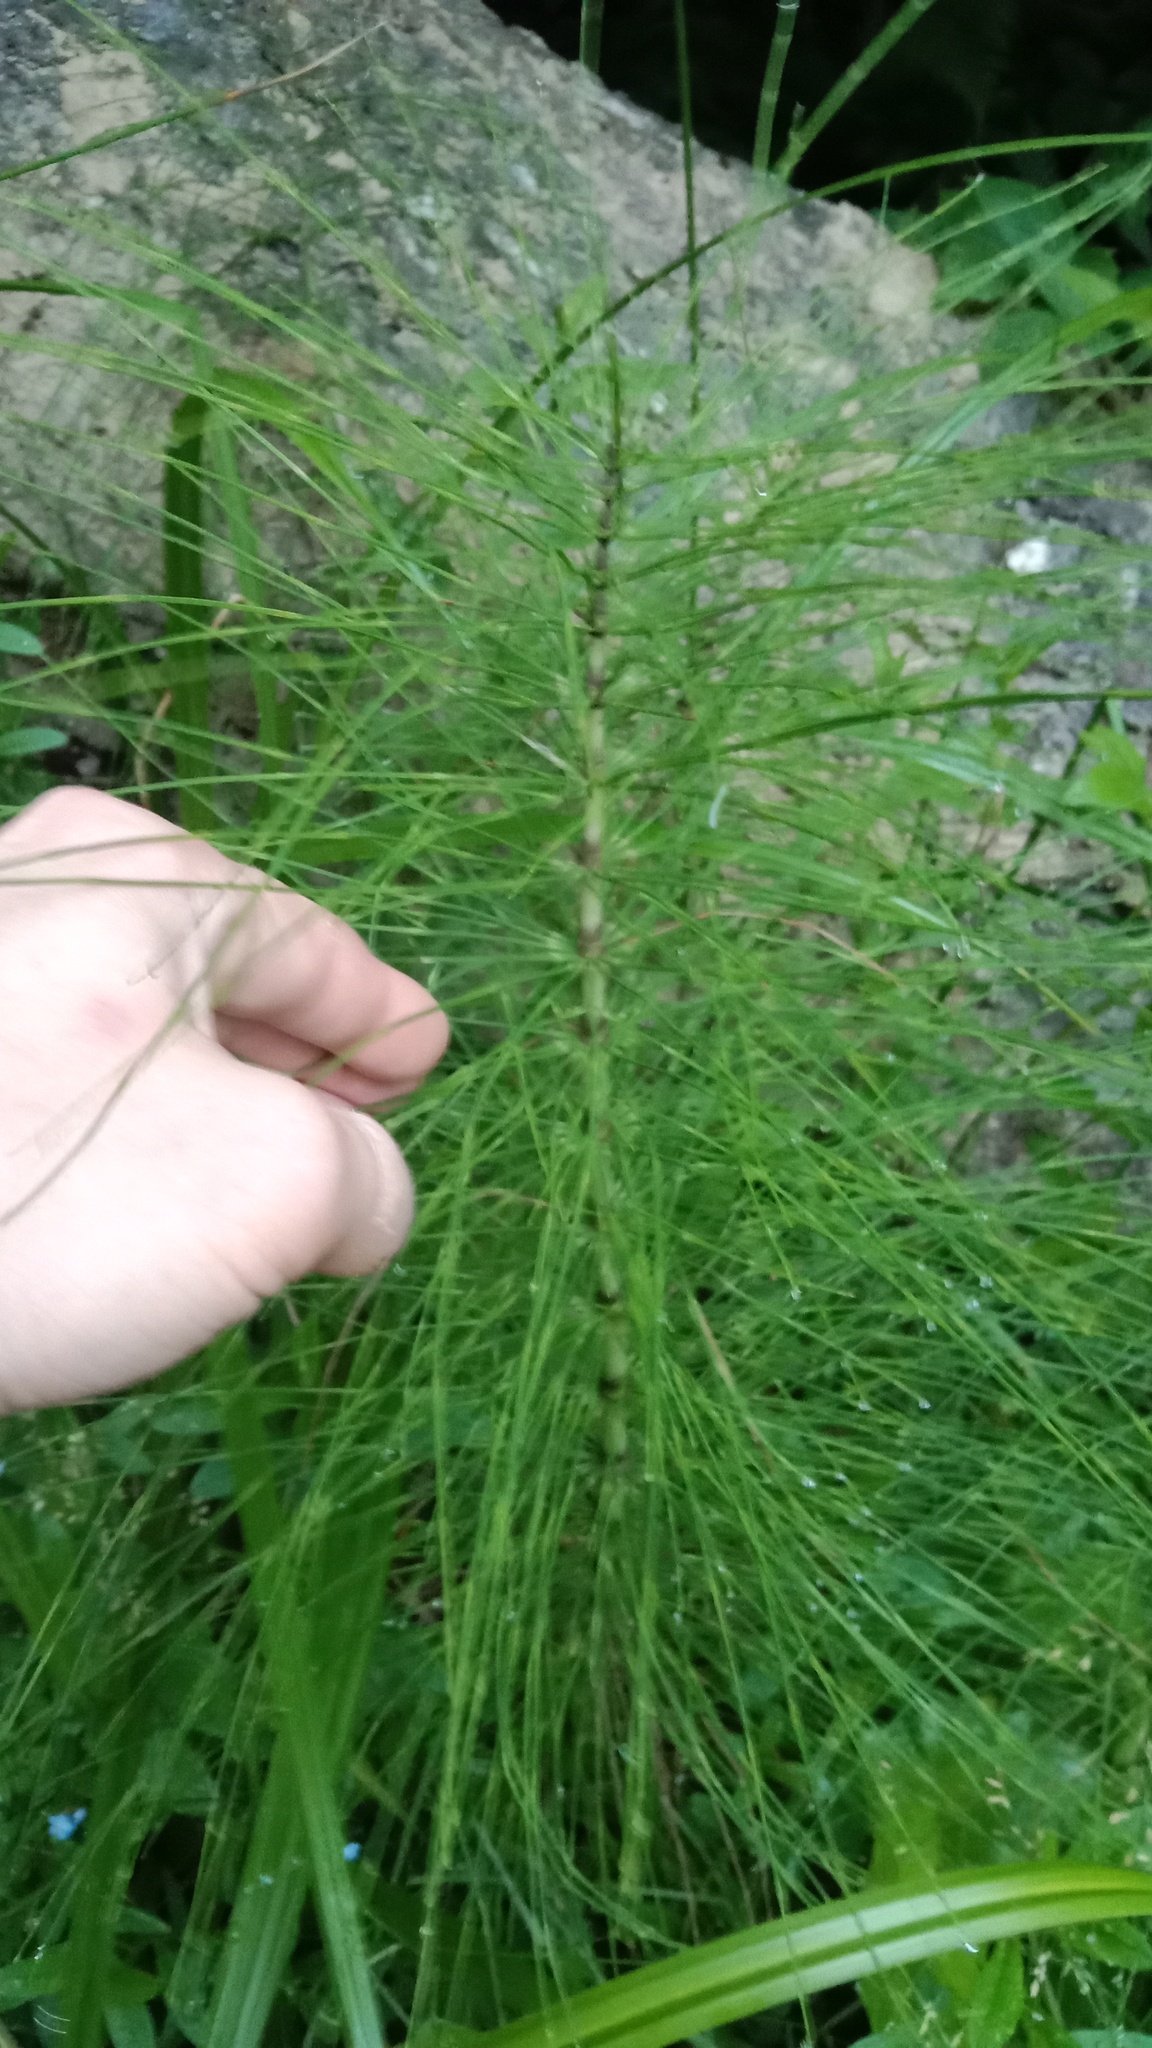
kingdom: Plantae
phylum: Tracheophyta
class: Polypodiopsida
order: Equisetales
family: Equisetaceae
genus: Equisetum
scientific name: Equisetum telmateia
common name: Great horsetail
